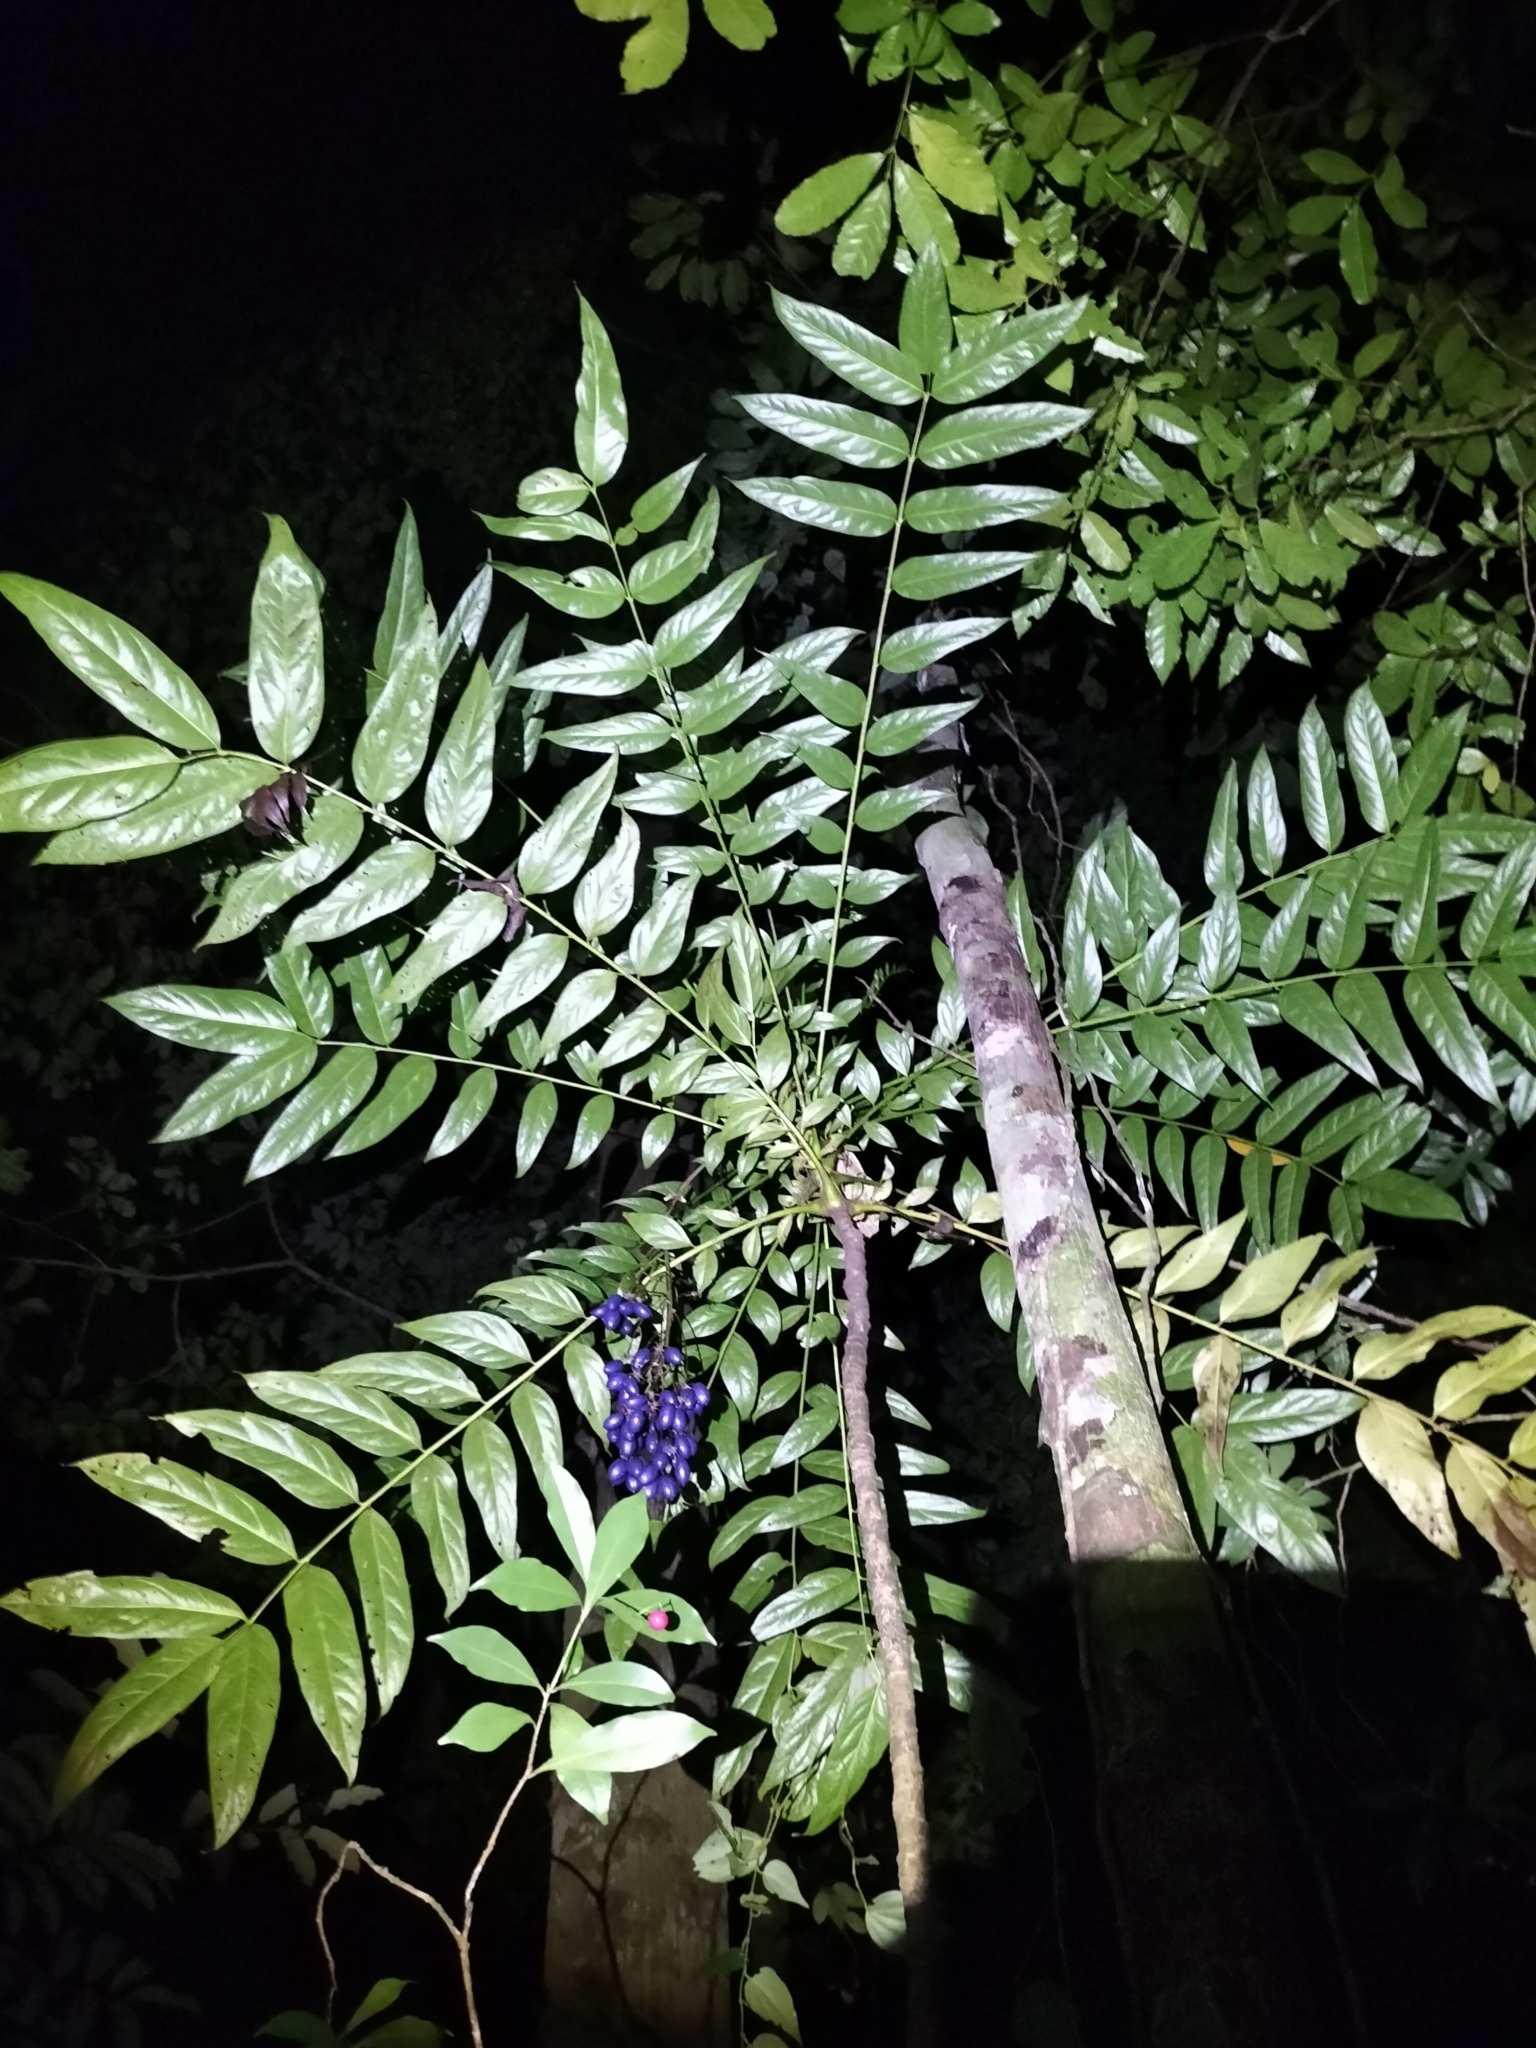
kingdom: Plantae
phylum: Tracheophyta
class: Magnoliopsida
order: Apiales
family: Myodocarpaceae
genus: Delarbrea
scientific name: Delarbrea michieana
